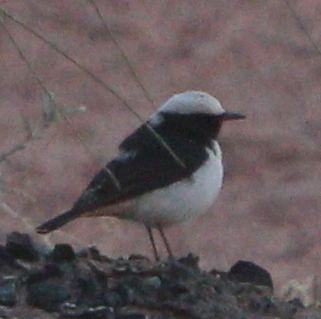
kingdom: Animalia
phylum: Chordata
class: Aves
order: Passeriformes
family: Muscicapidae
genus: Oenanthe
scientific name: Oenanthe lugens
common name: Mourning wheatear
